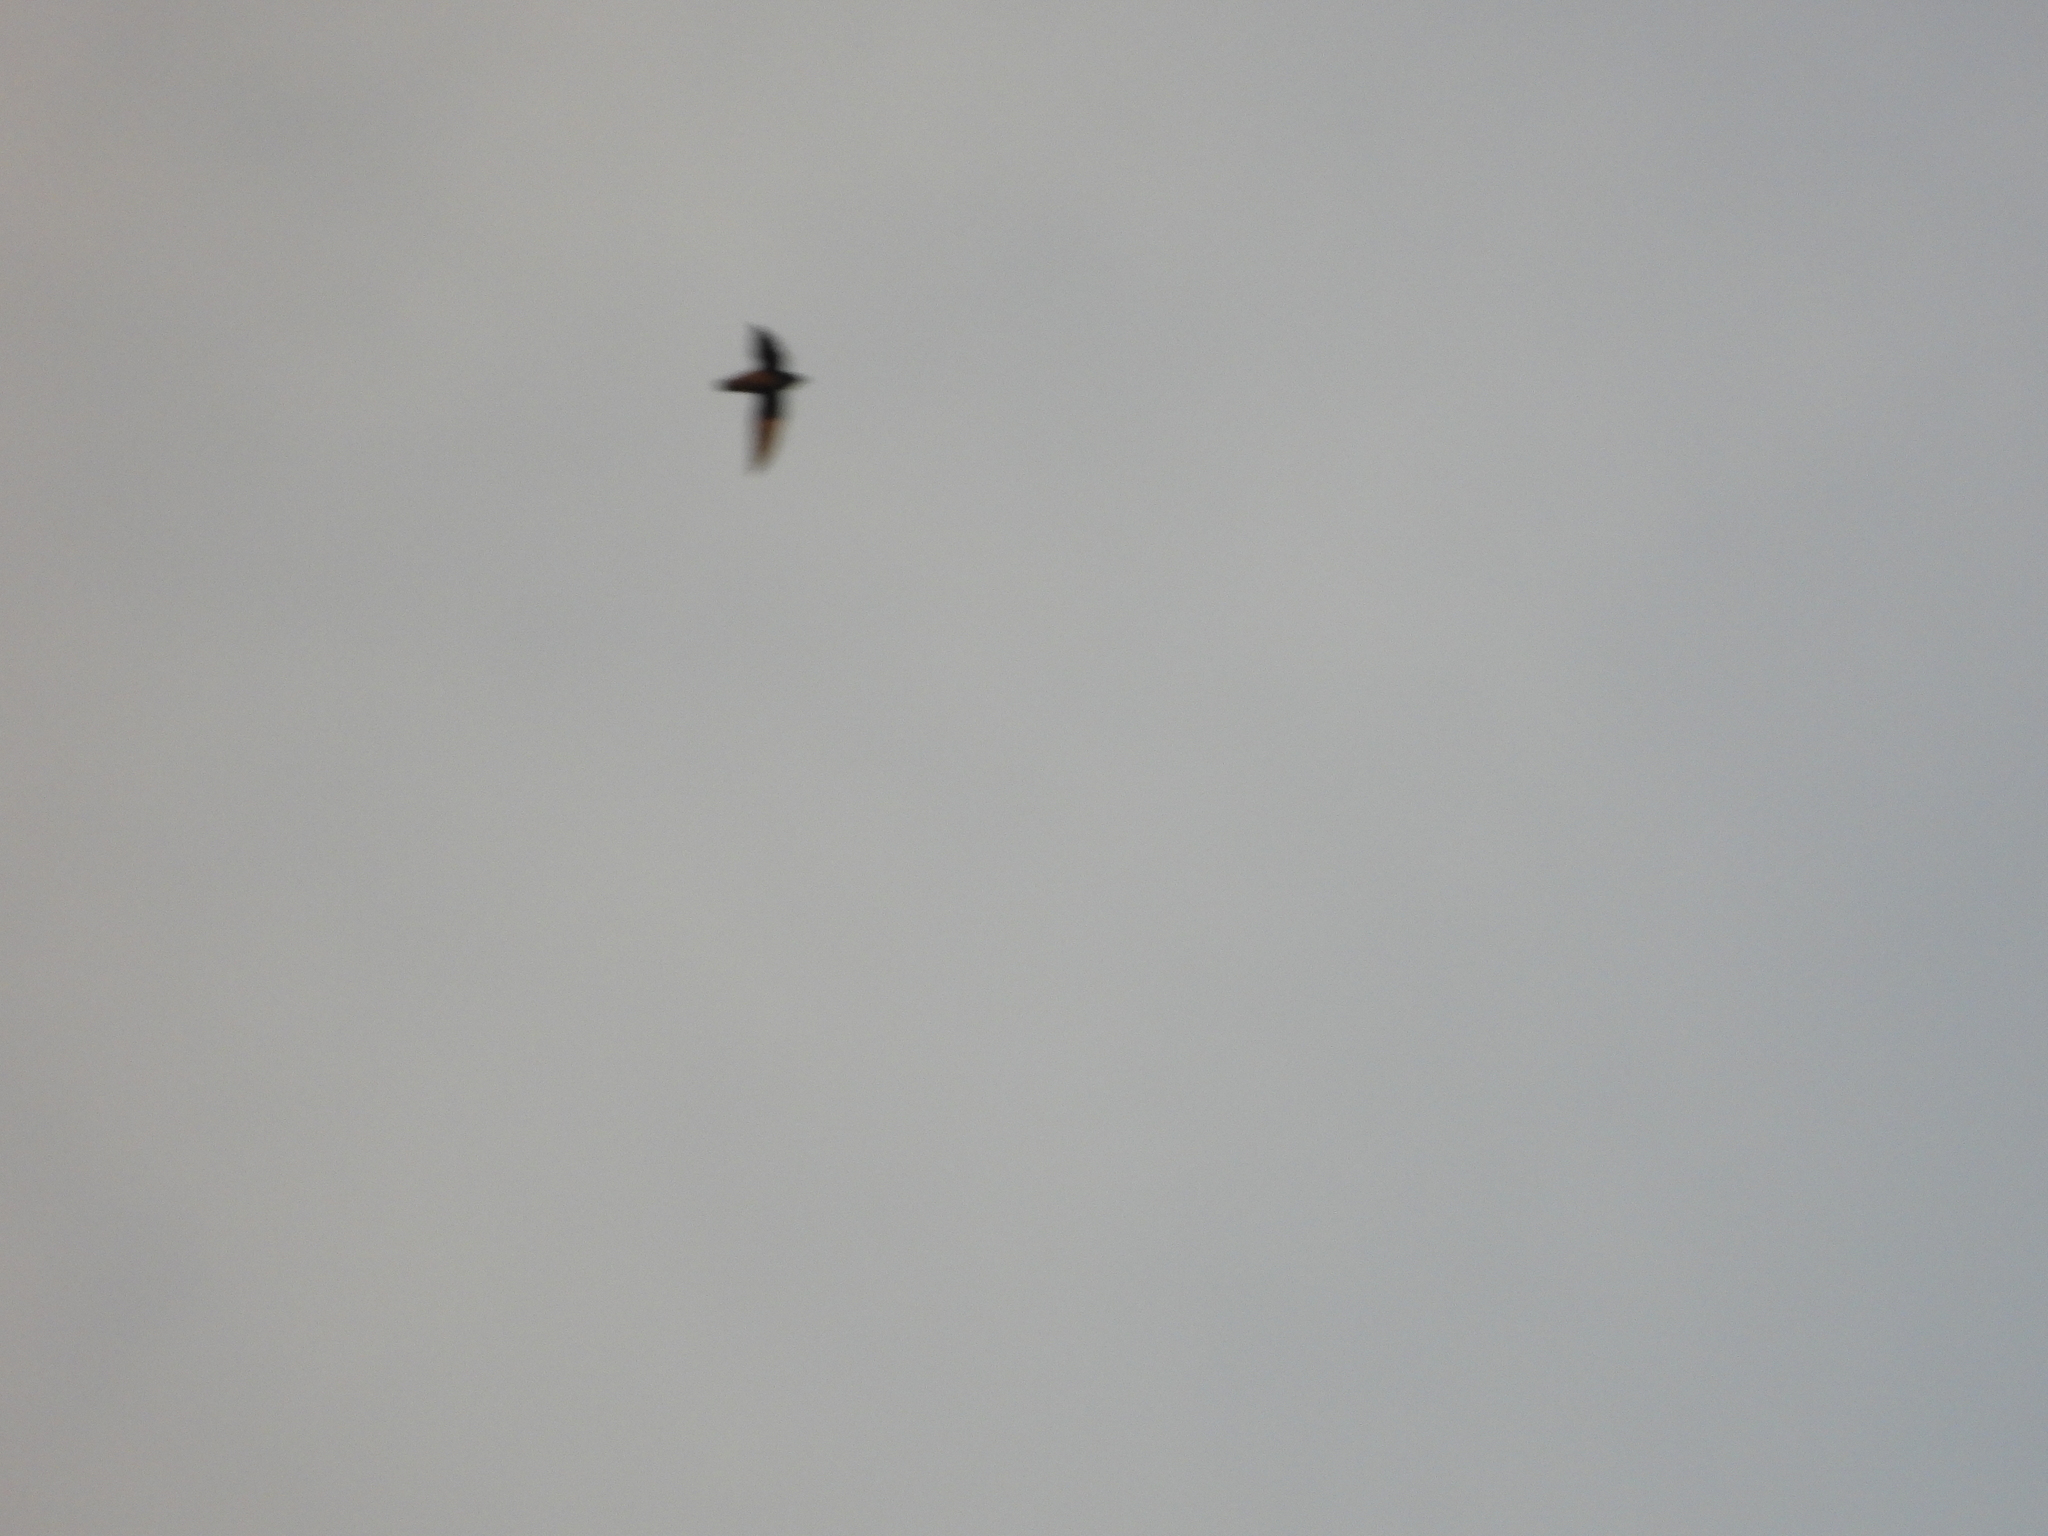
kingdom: Animalia
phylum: Chordata
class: Aves
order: Apodiformes
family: Apodidae
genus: Chaetura
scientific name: Chaetura pelagica
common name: Chimney swift
